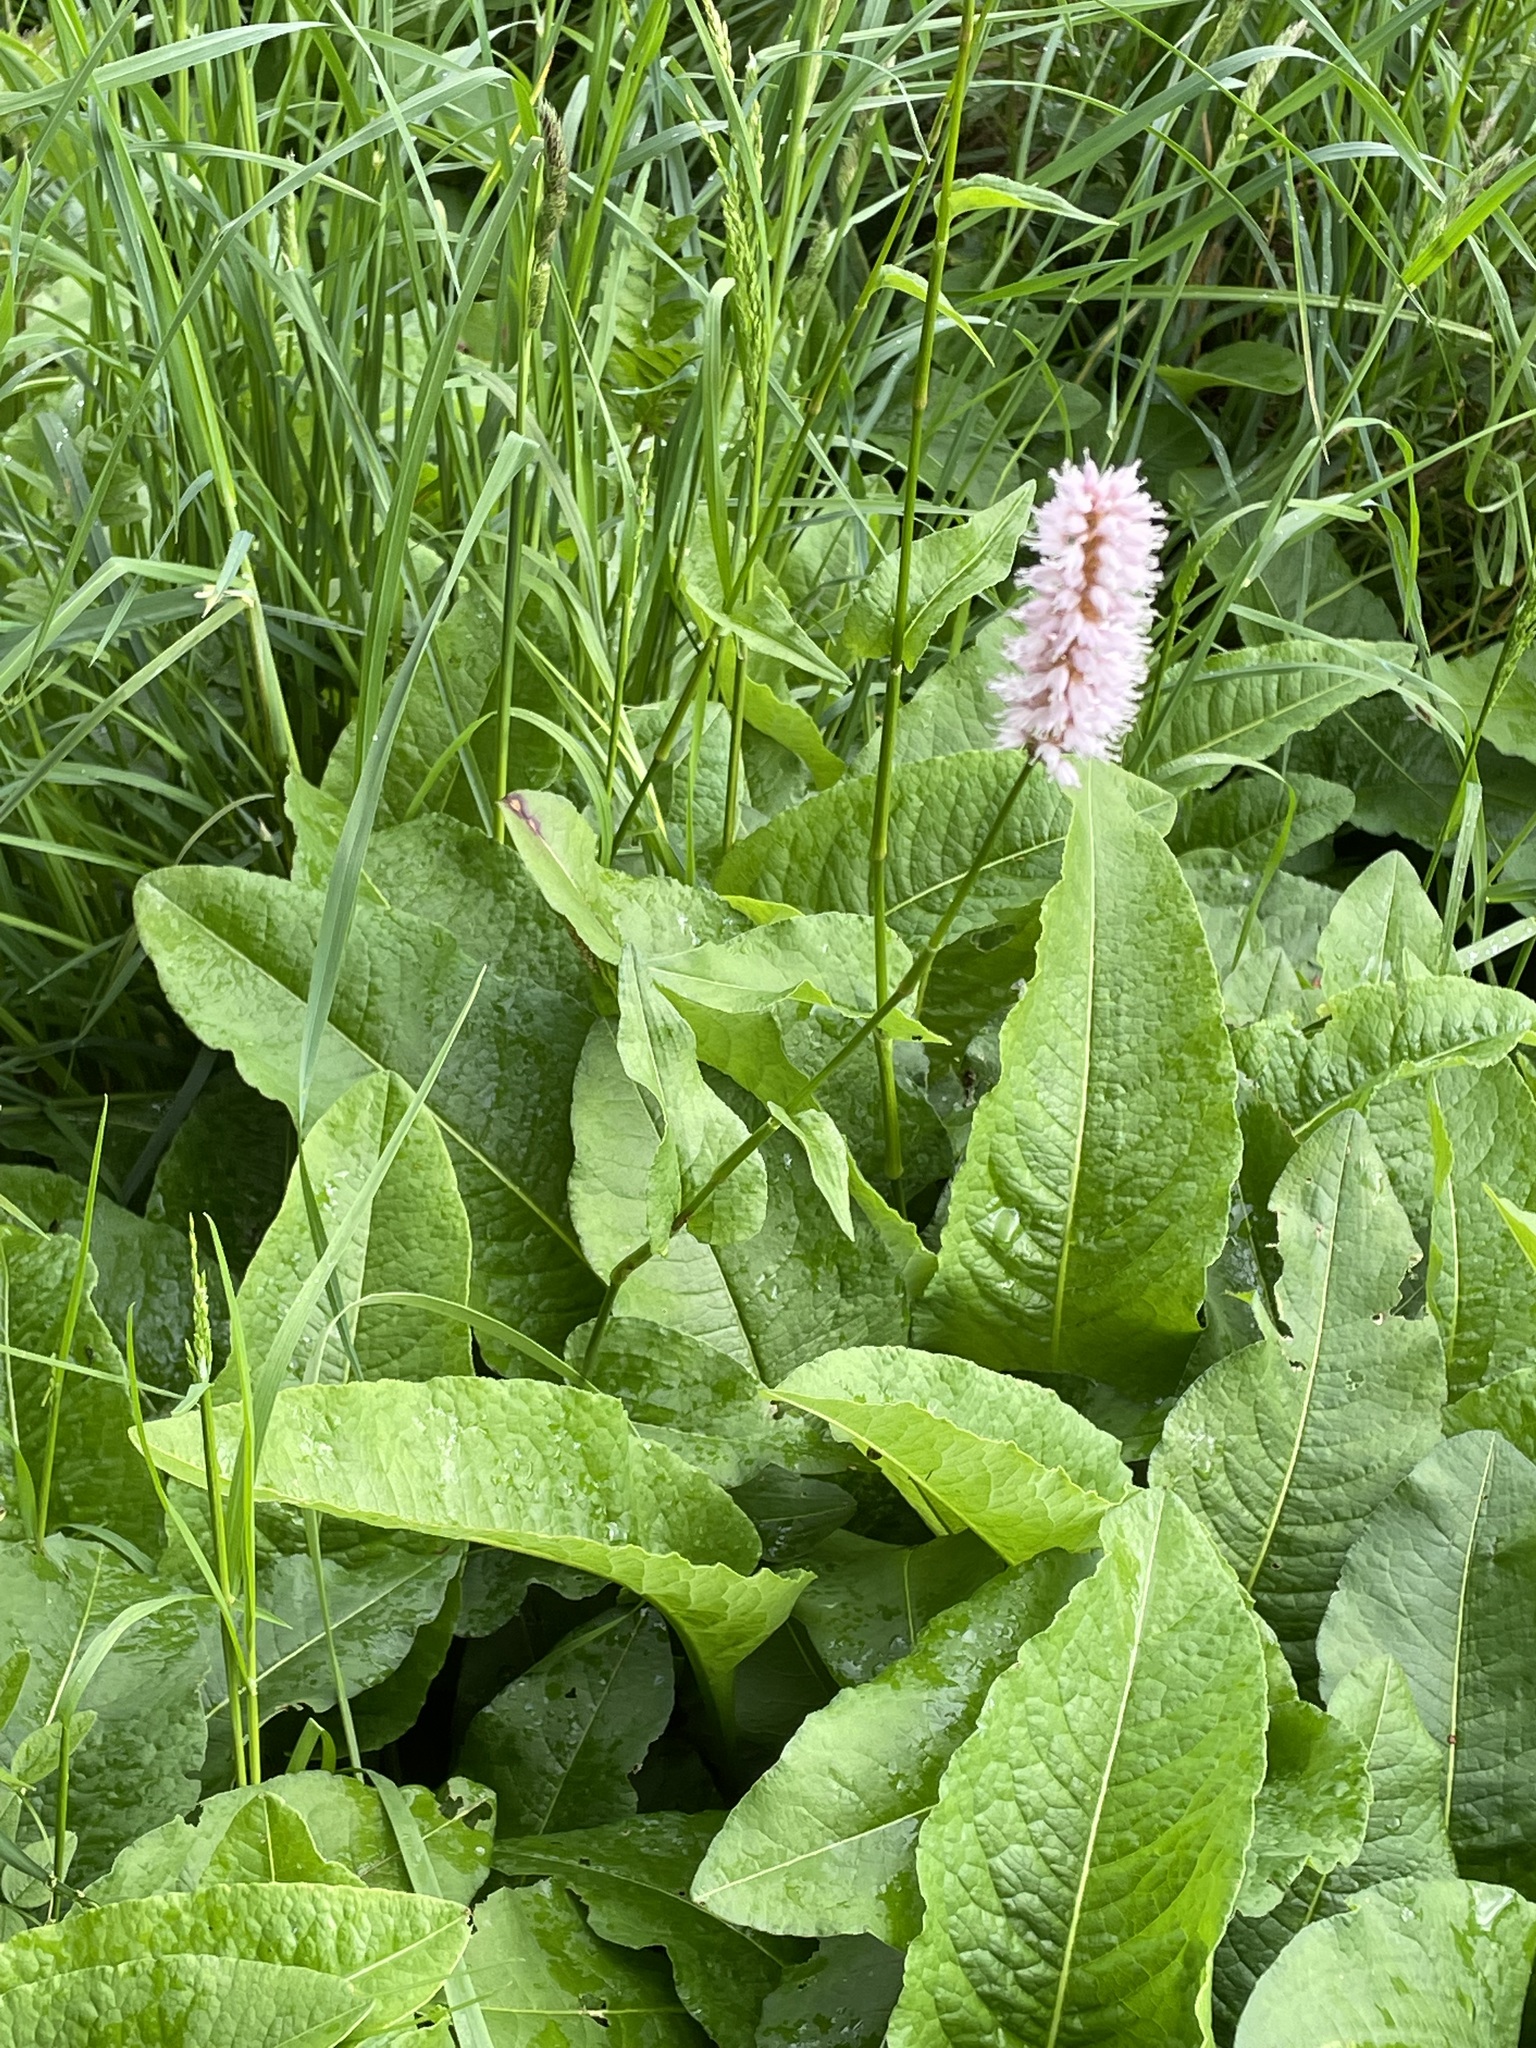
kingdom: Plantae
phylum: Tracheophyta
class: Magnoliopsida
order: Caryophyllales
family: Polygonaceae
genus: Bistorta
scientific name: Bistorta officinalis
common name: Common bistort
